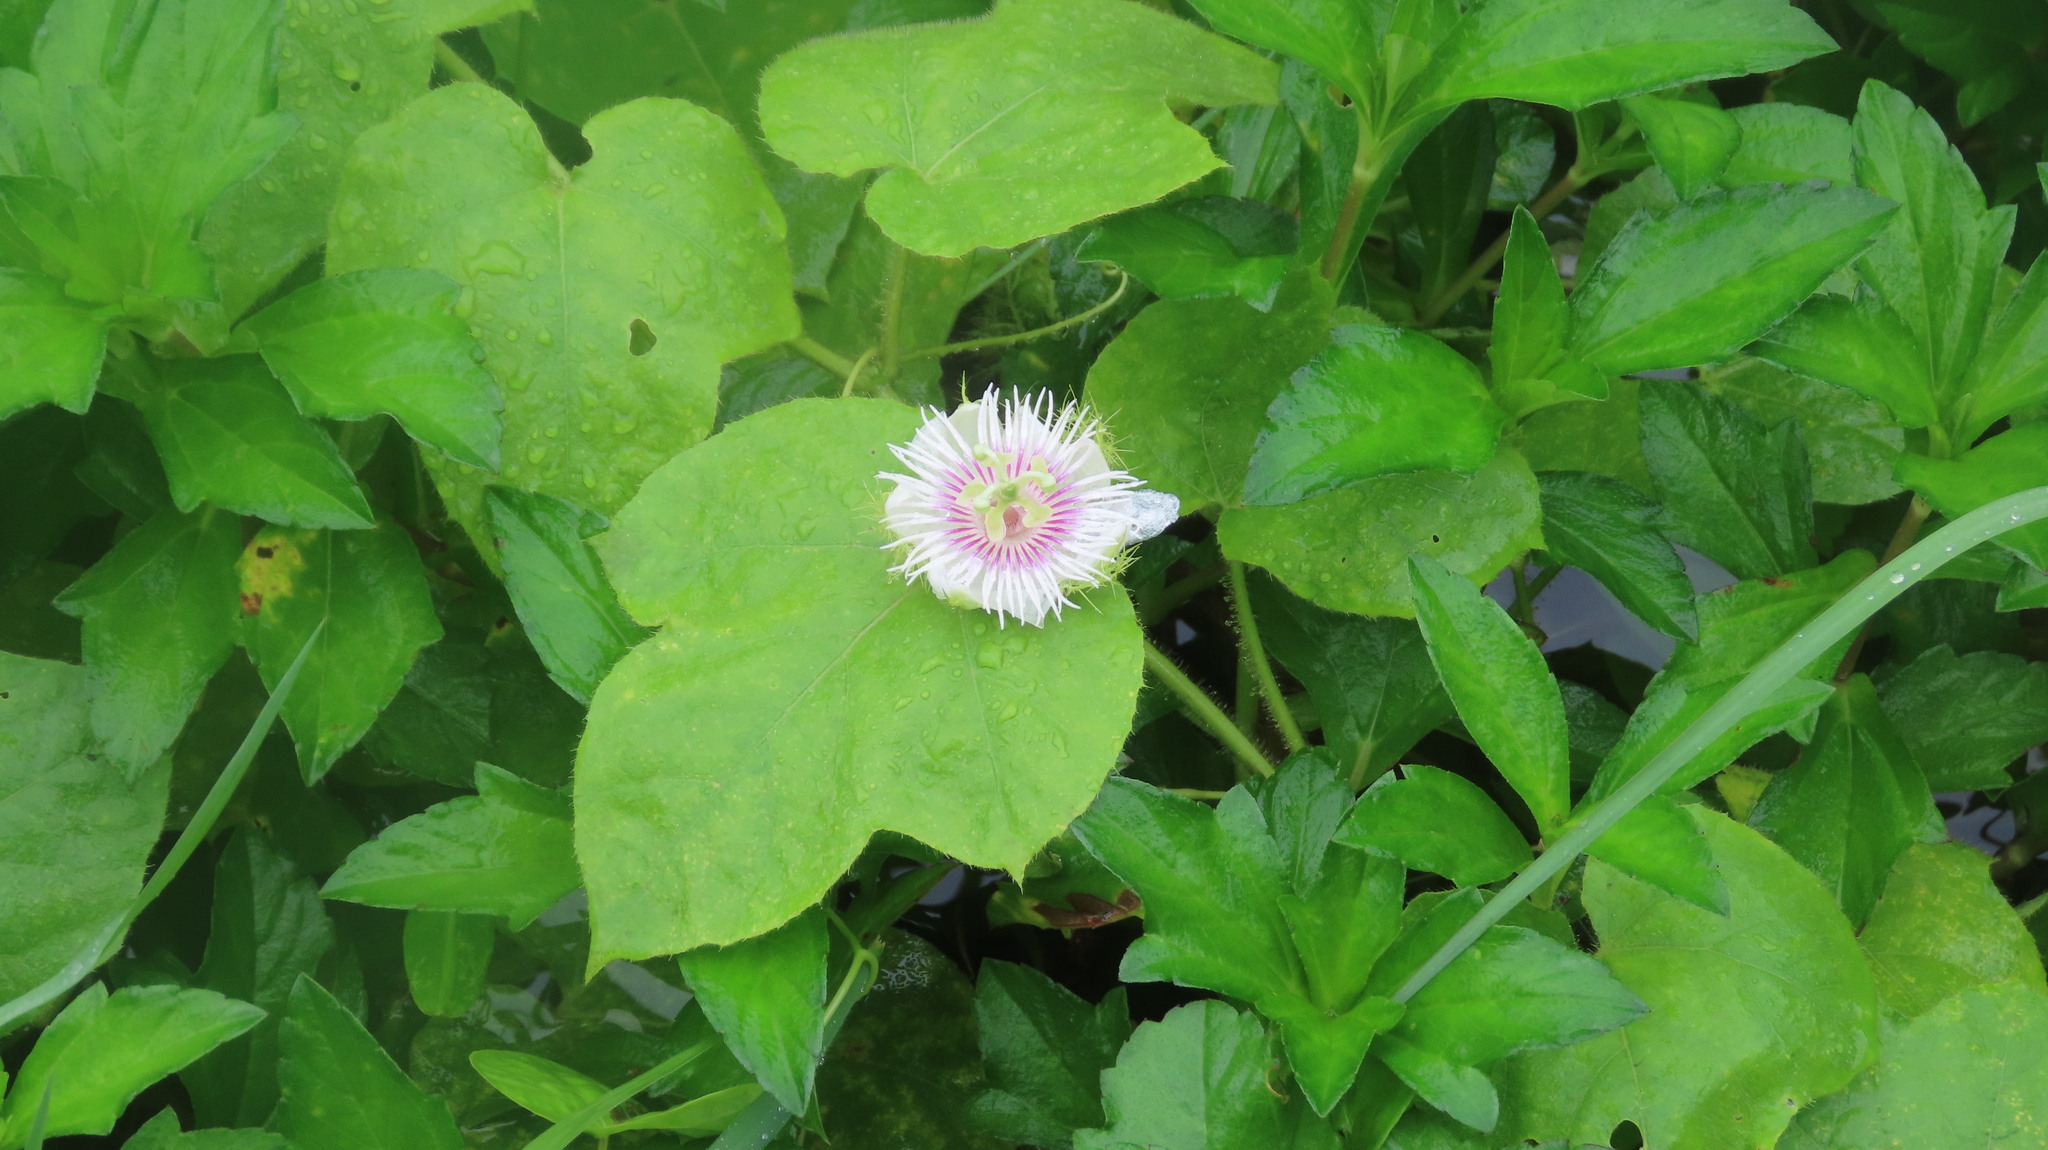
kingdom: Plantae
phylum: Tracheophyta
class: Magnoliopsida
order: Malpighiales
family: Passifloraceae
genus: Passiflora
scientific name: Passiflora vesicaria
